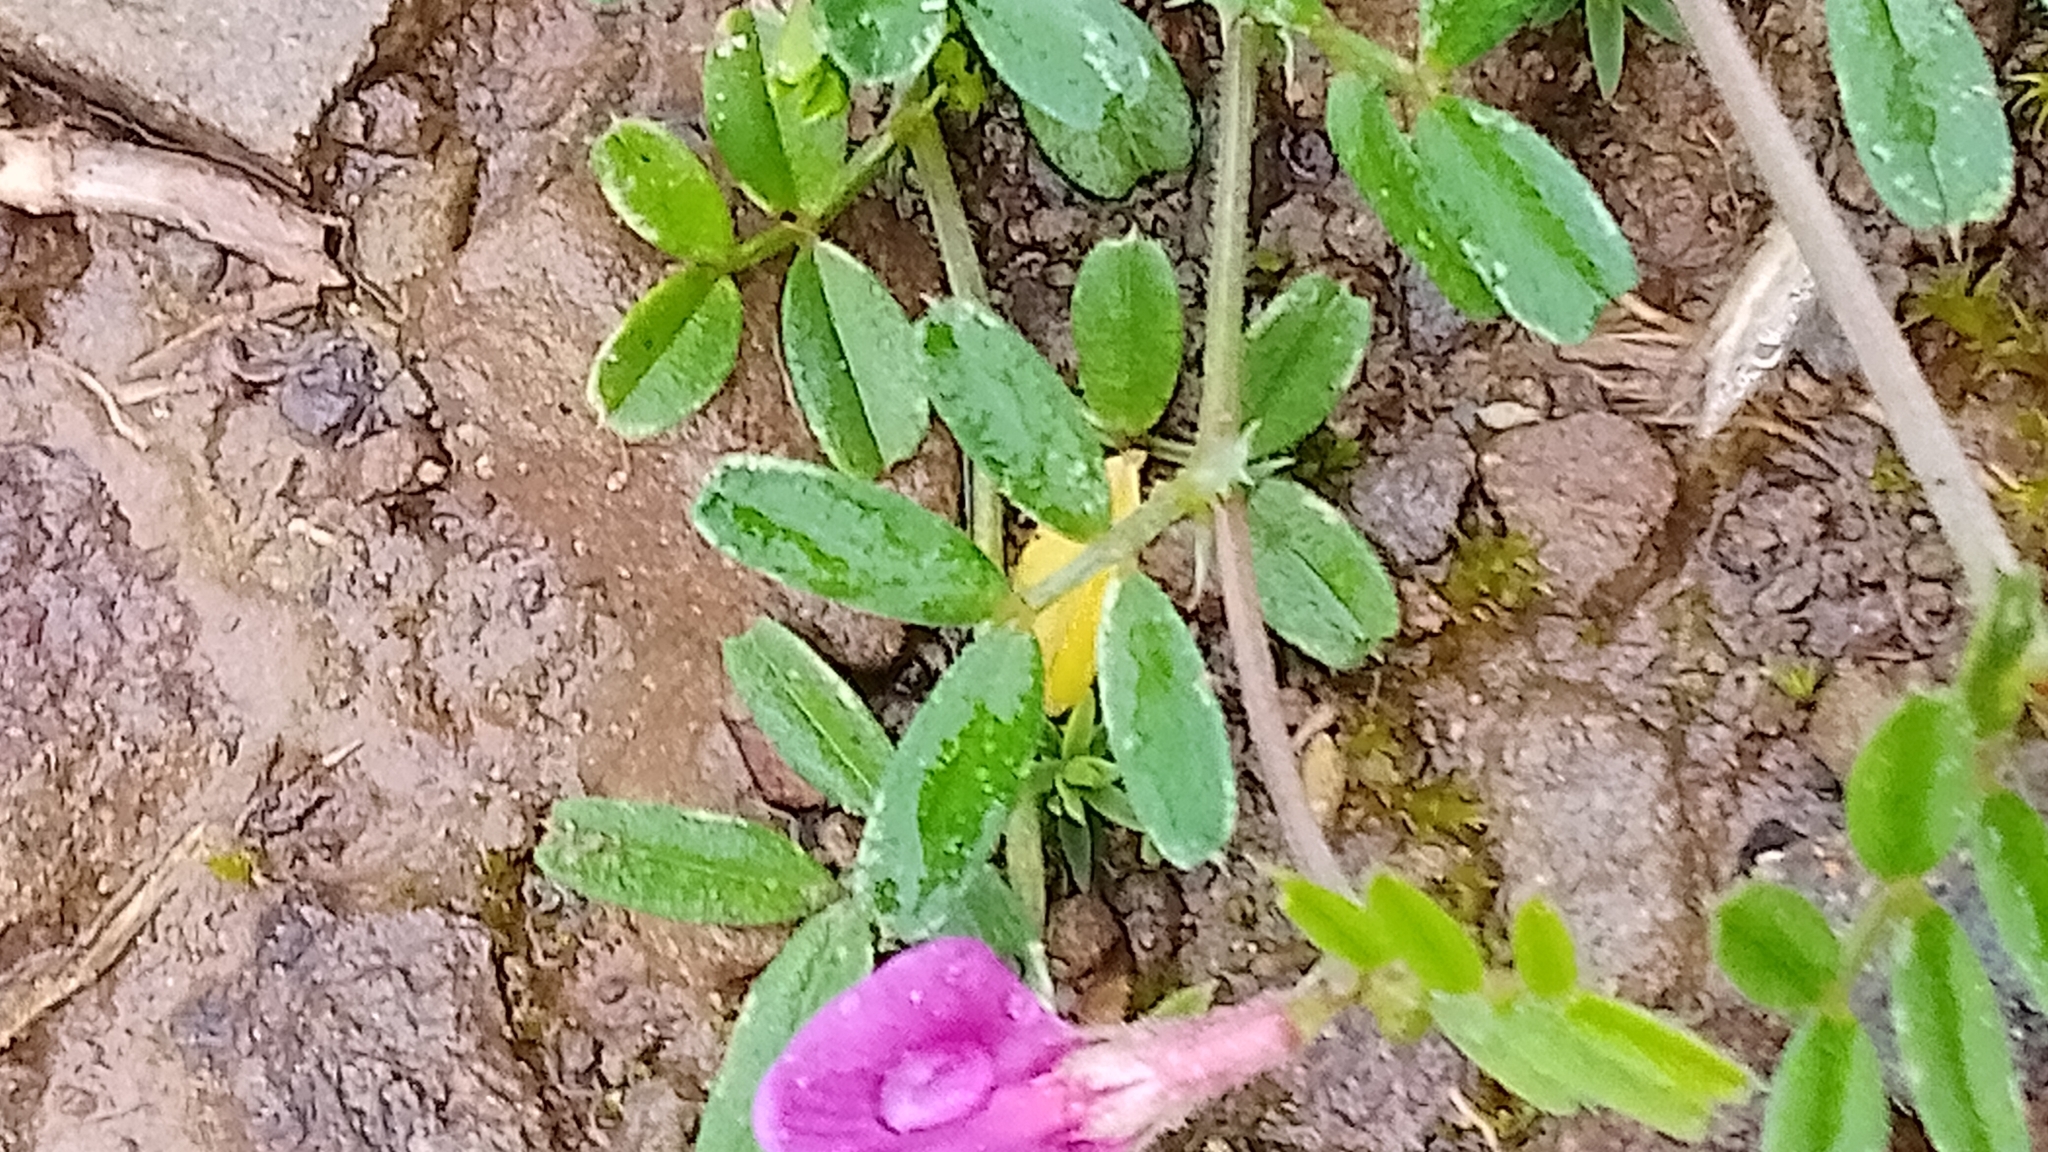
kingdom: Plantae
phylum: Tracheophyta
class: Magnoliopsida
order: Fabales
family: Fabaceae
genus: Vicia
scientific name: Vicia sativa
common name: Garden vetch
